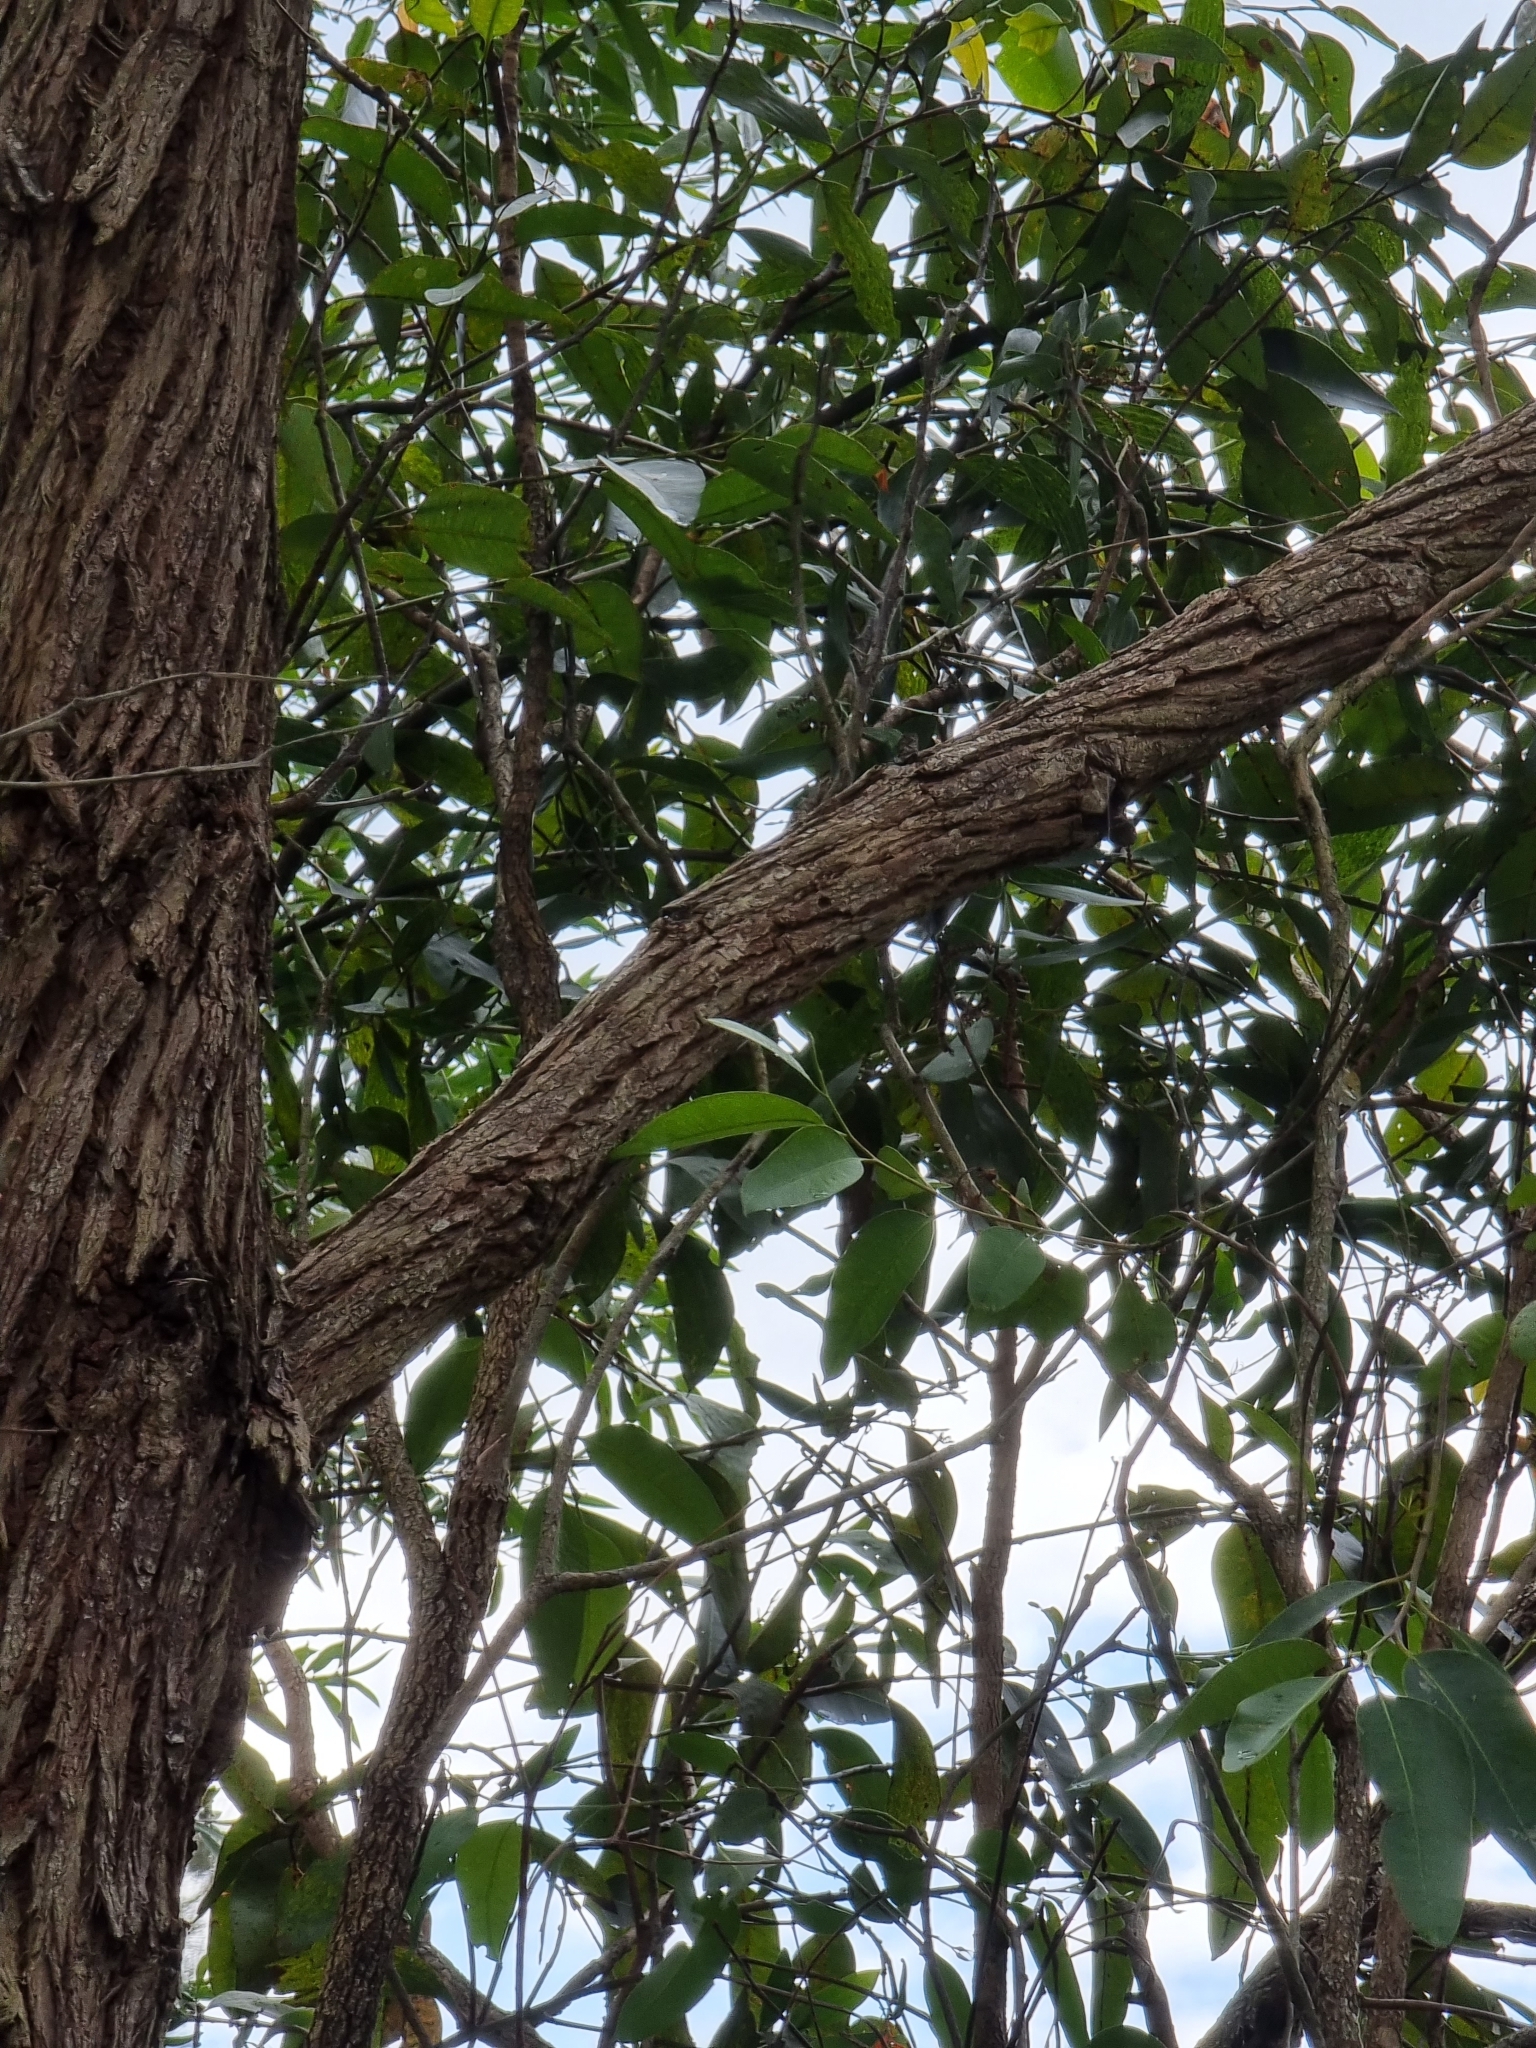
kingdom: Animalia
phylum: Chordata
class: Aves
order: Passeriformes
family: Maluridae
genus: Malurus
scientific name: Malurus cyaneus
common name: Superb fairywren
